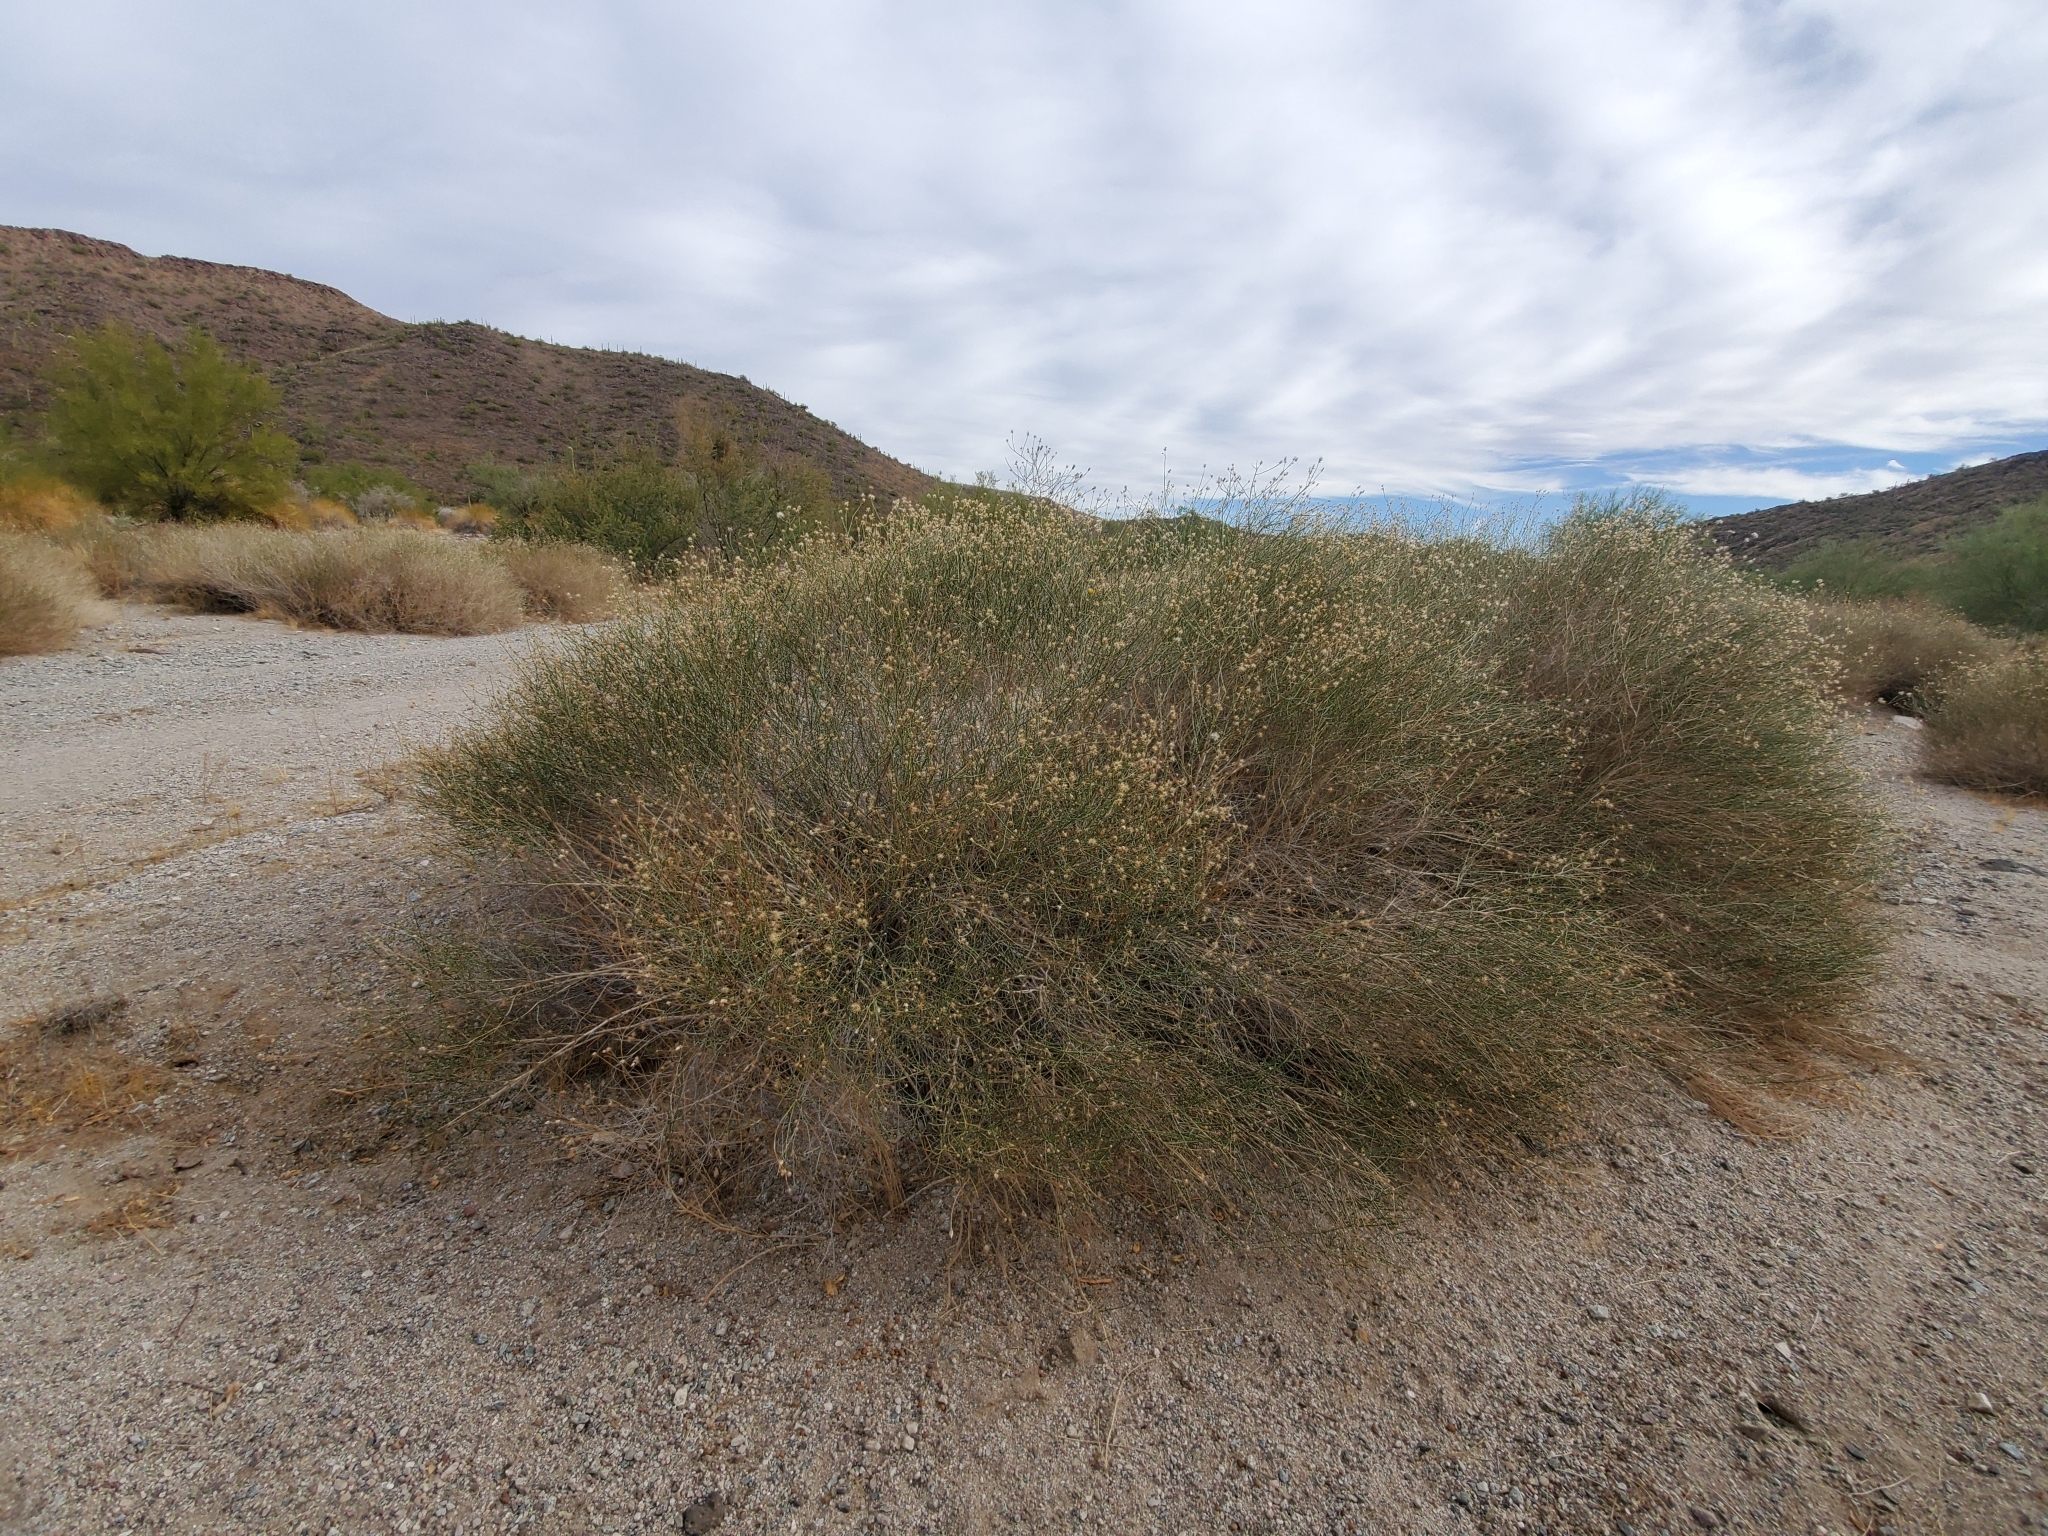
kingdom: Plantae
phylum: Tracheophyta
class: Magnoliopsida
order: Asterales
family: Asteraceae
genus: Bebbia
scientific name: Bebbia juncea
